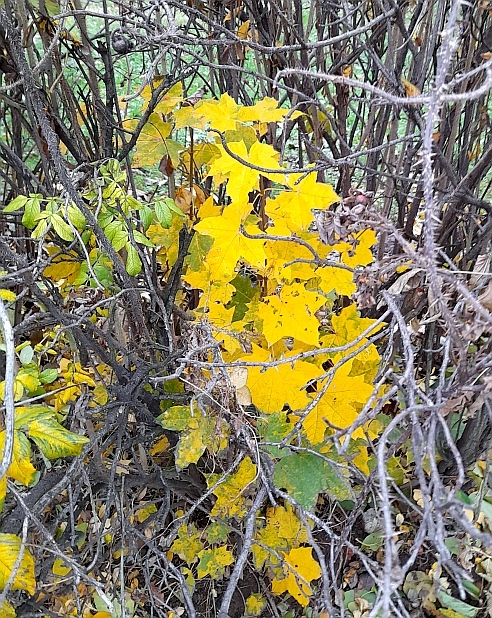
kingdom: Plantae
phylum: Tracheophyta
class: Magnoliopsida
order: Sapindales
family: Sapindaceae
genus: Acer
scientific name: Acer platanoides
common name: Norway maple
